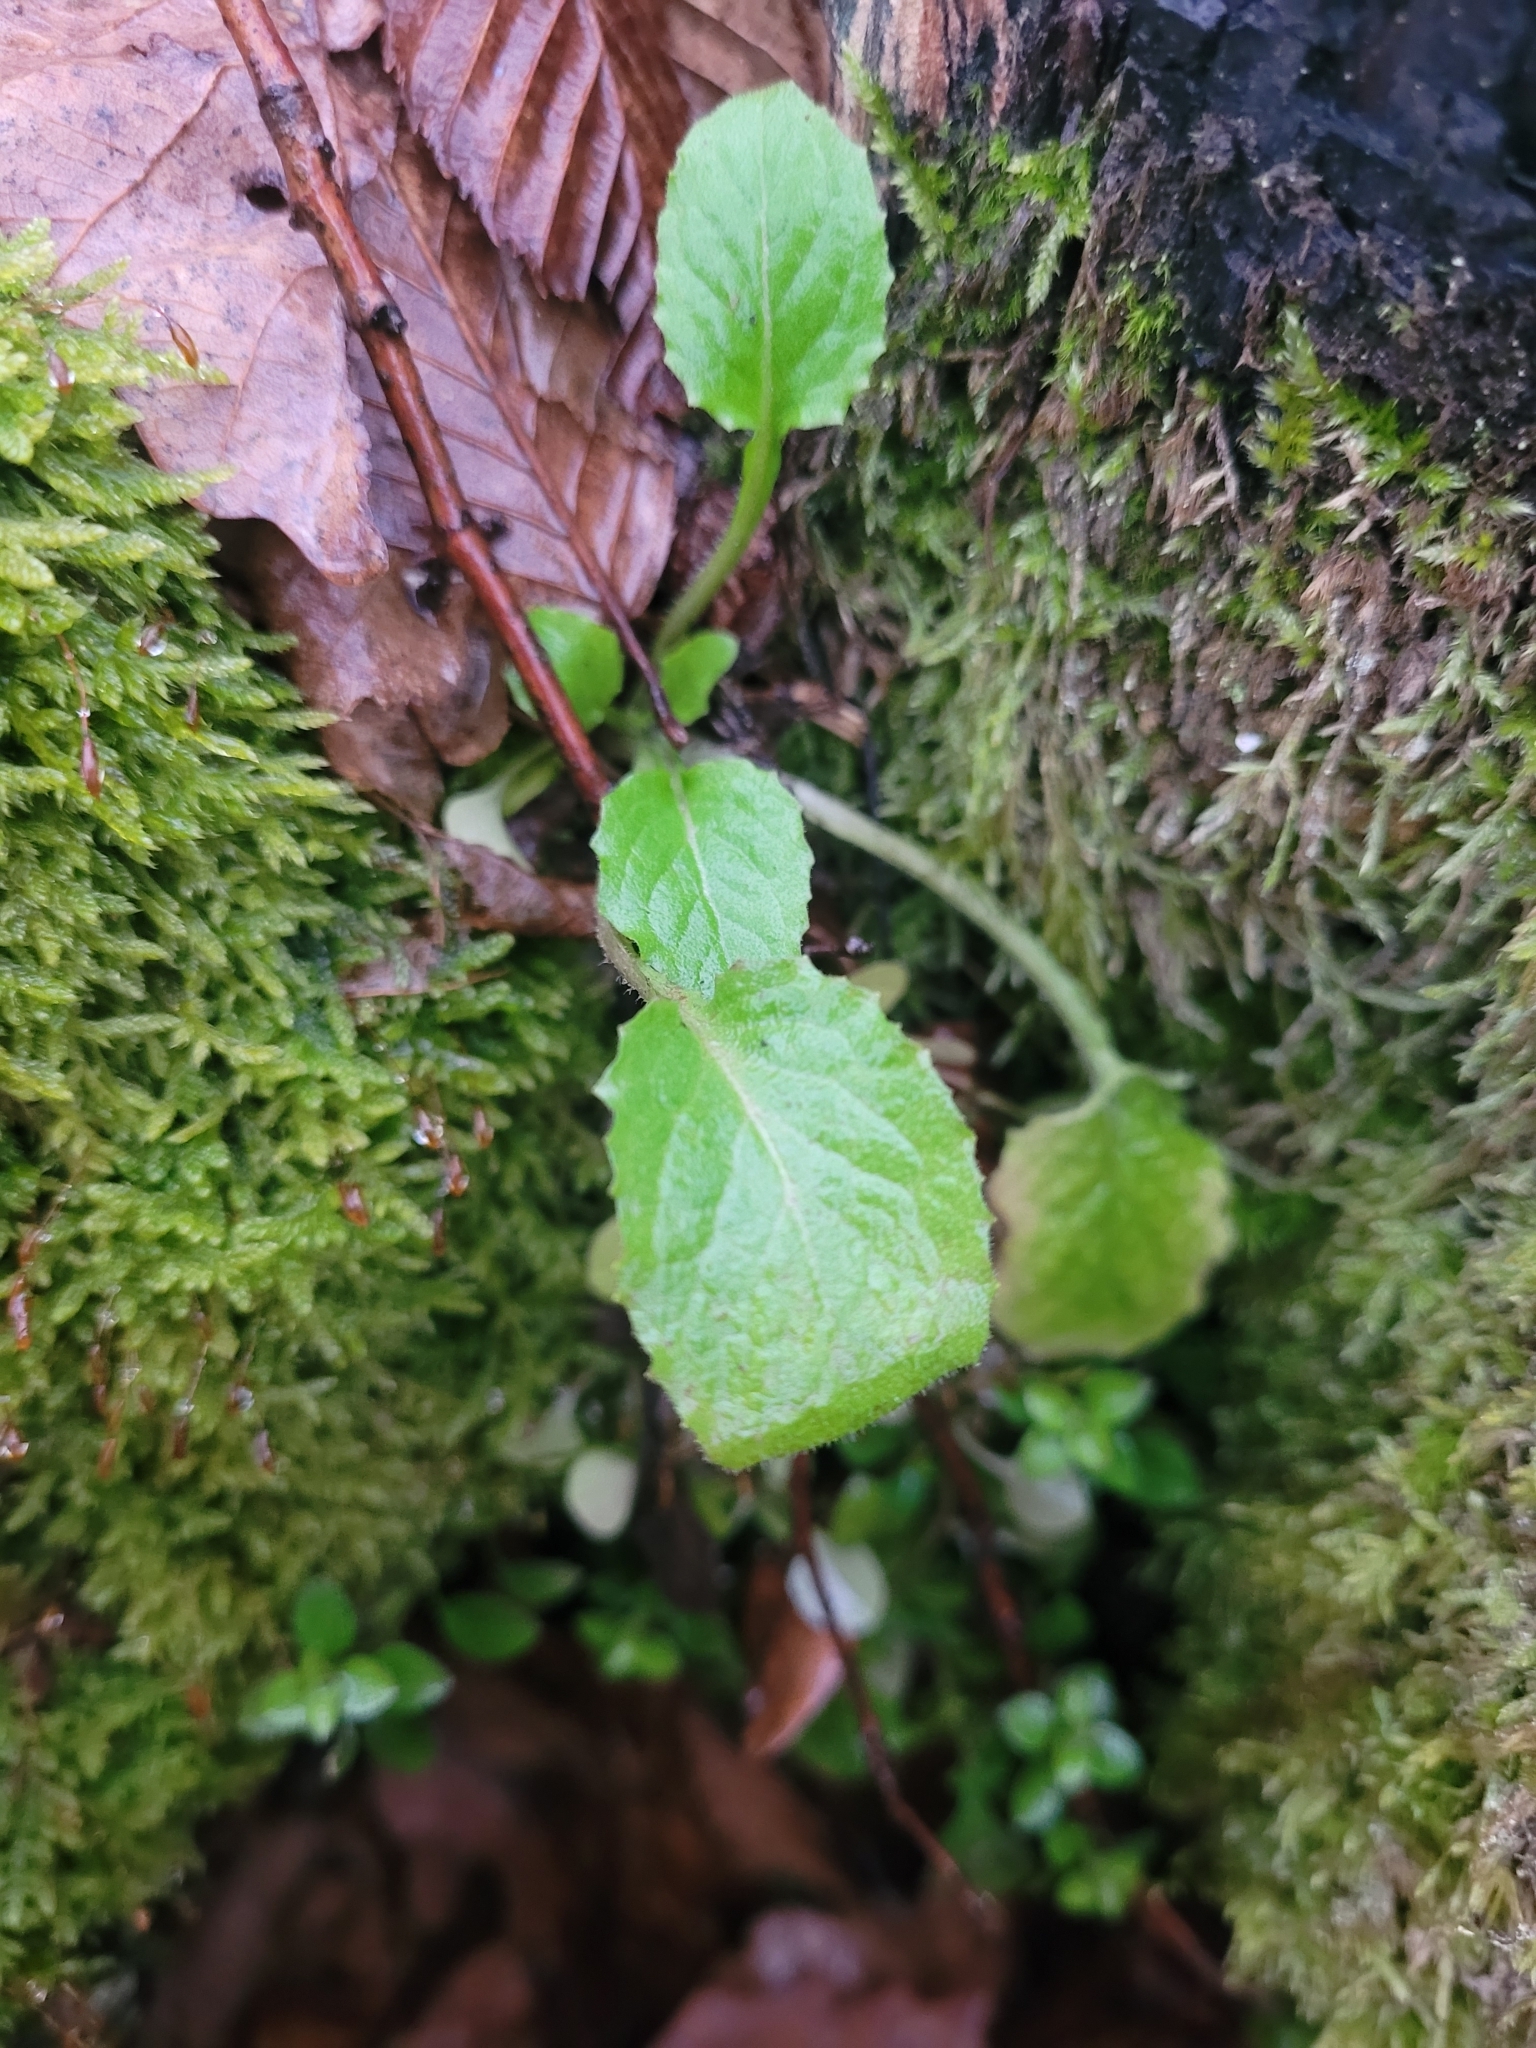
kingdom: Plantae
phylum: Tracheophyta
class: Magnoliopsida
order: Asterales
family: Asteraceae
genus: Lapsana
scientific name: Lapsana communis
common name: Nipplewort
